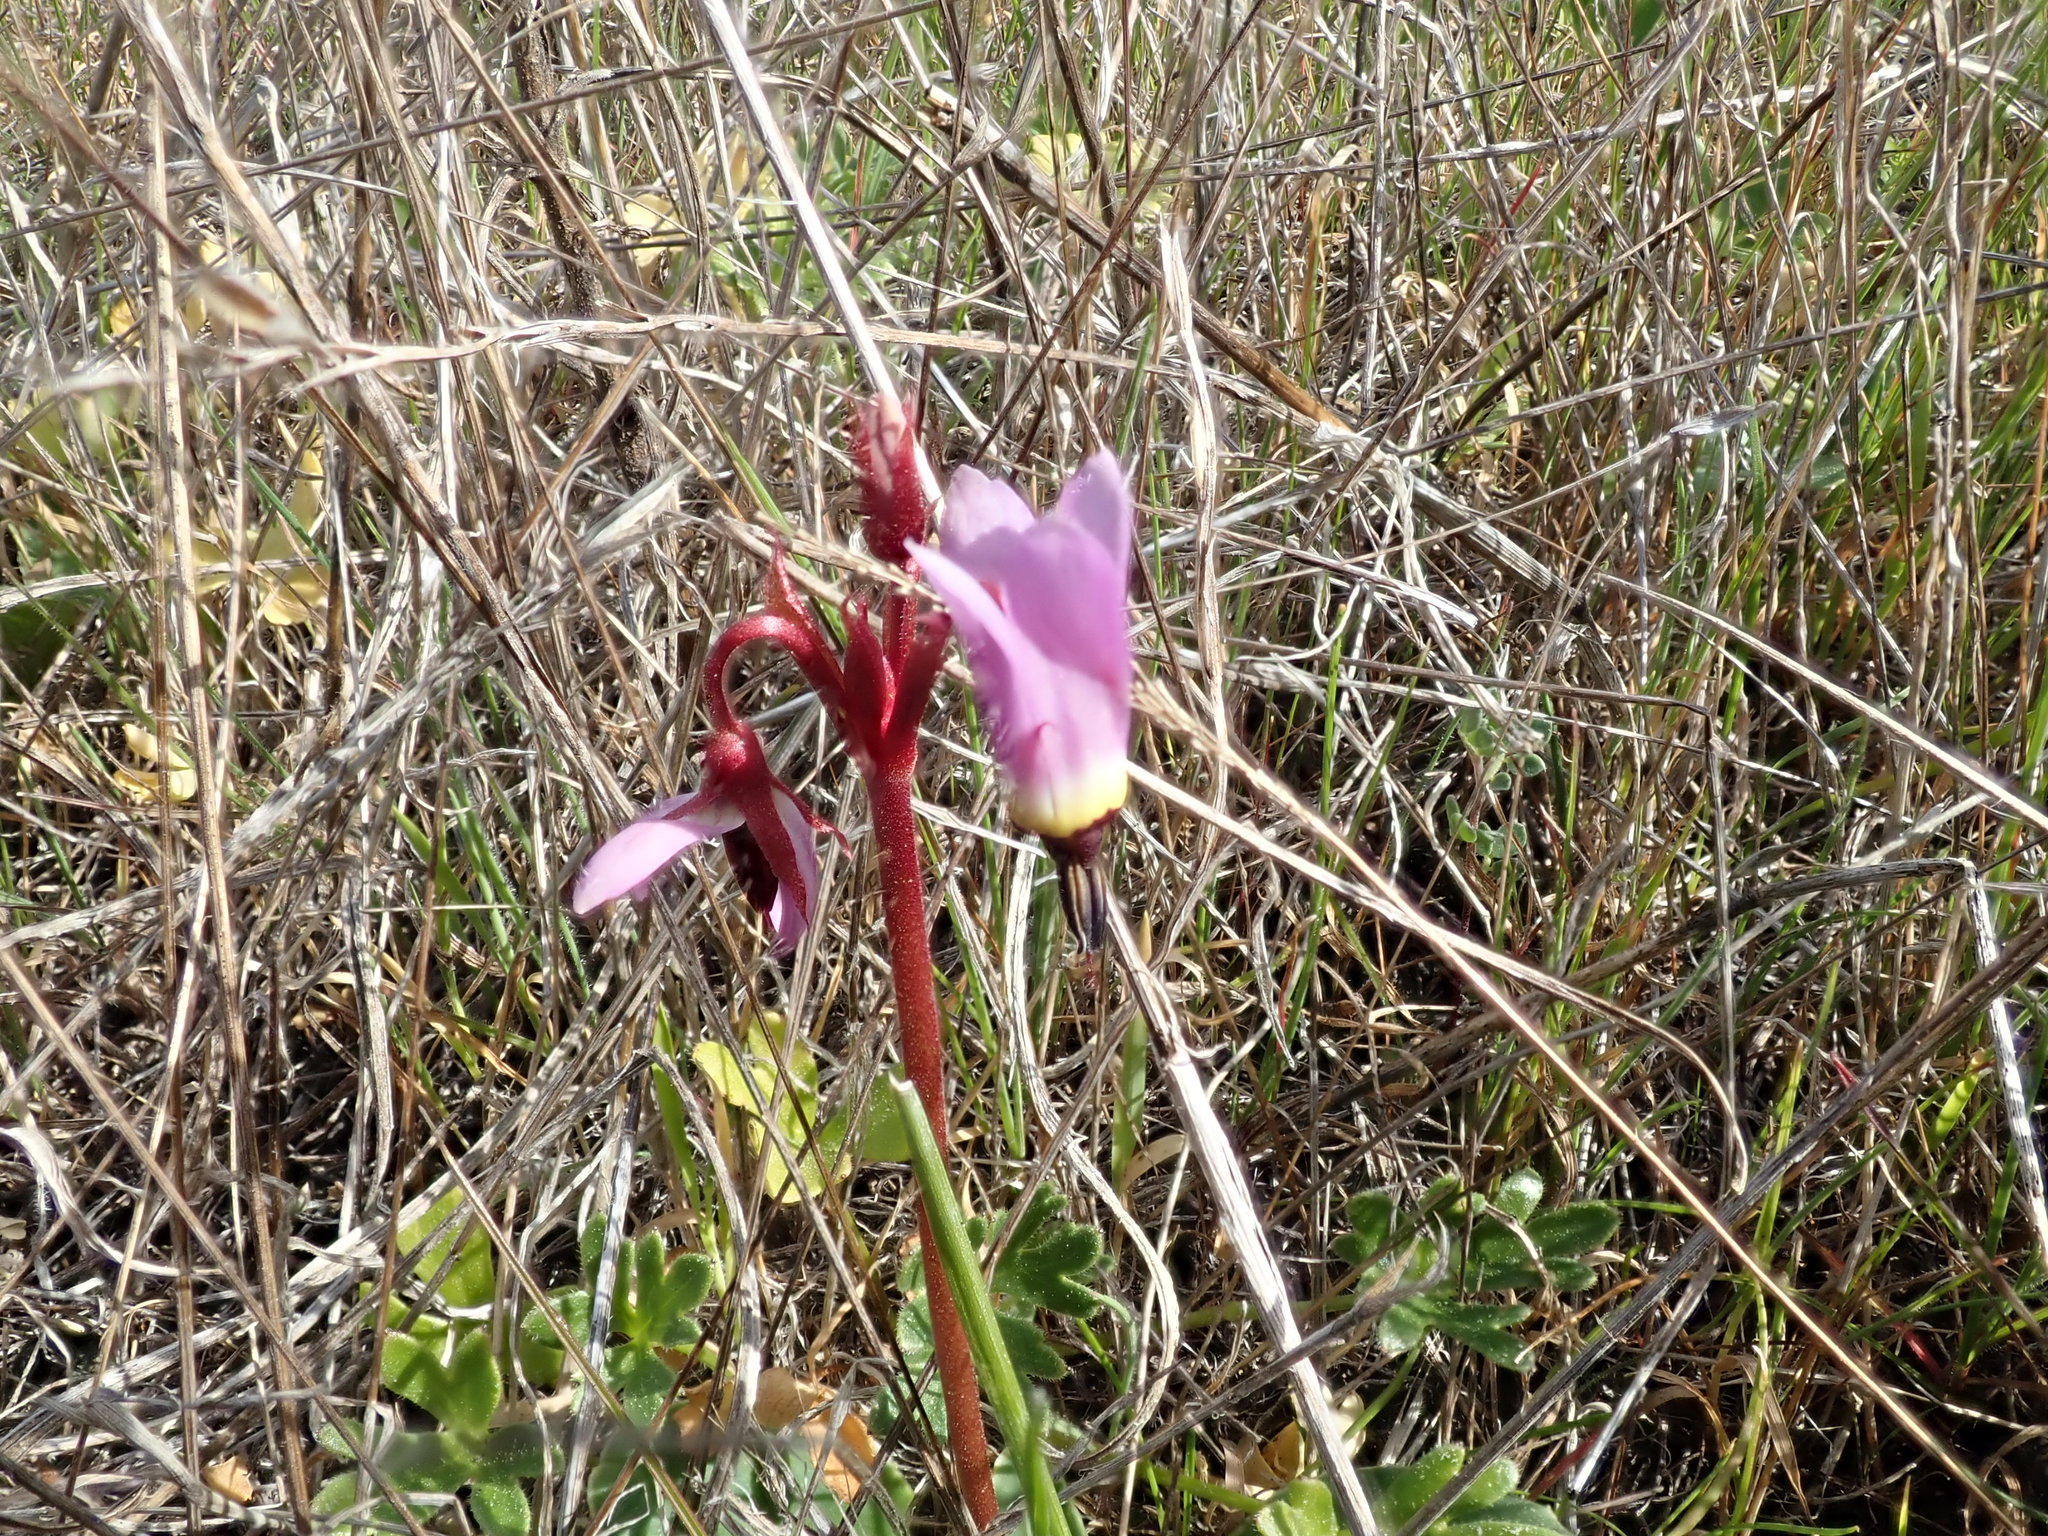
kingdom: Plantae
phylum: Tracheophyta
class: Magnoliopsida
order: Ericales
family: Primulaceae
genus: Dodecatheon
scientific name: Dodecatheon hendersonii
